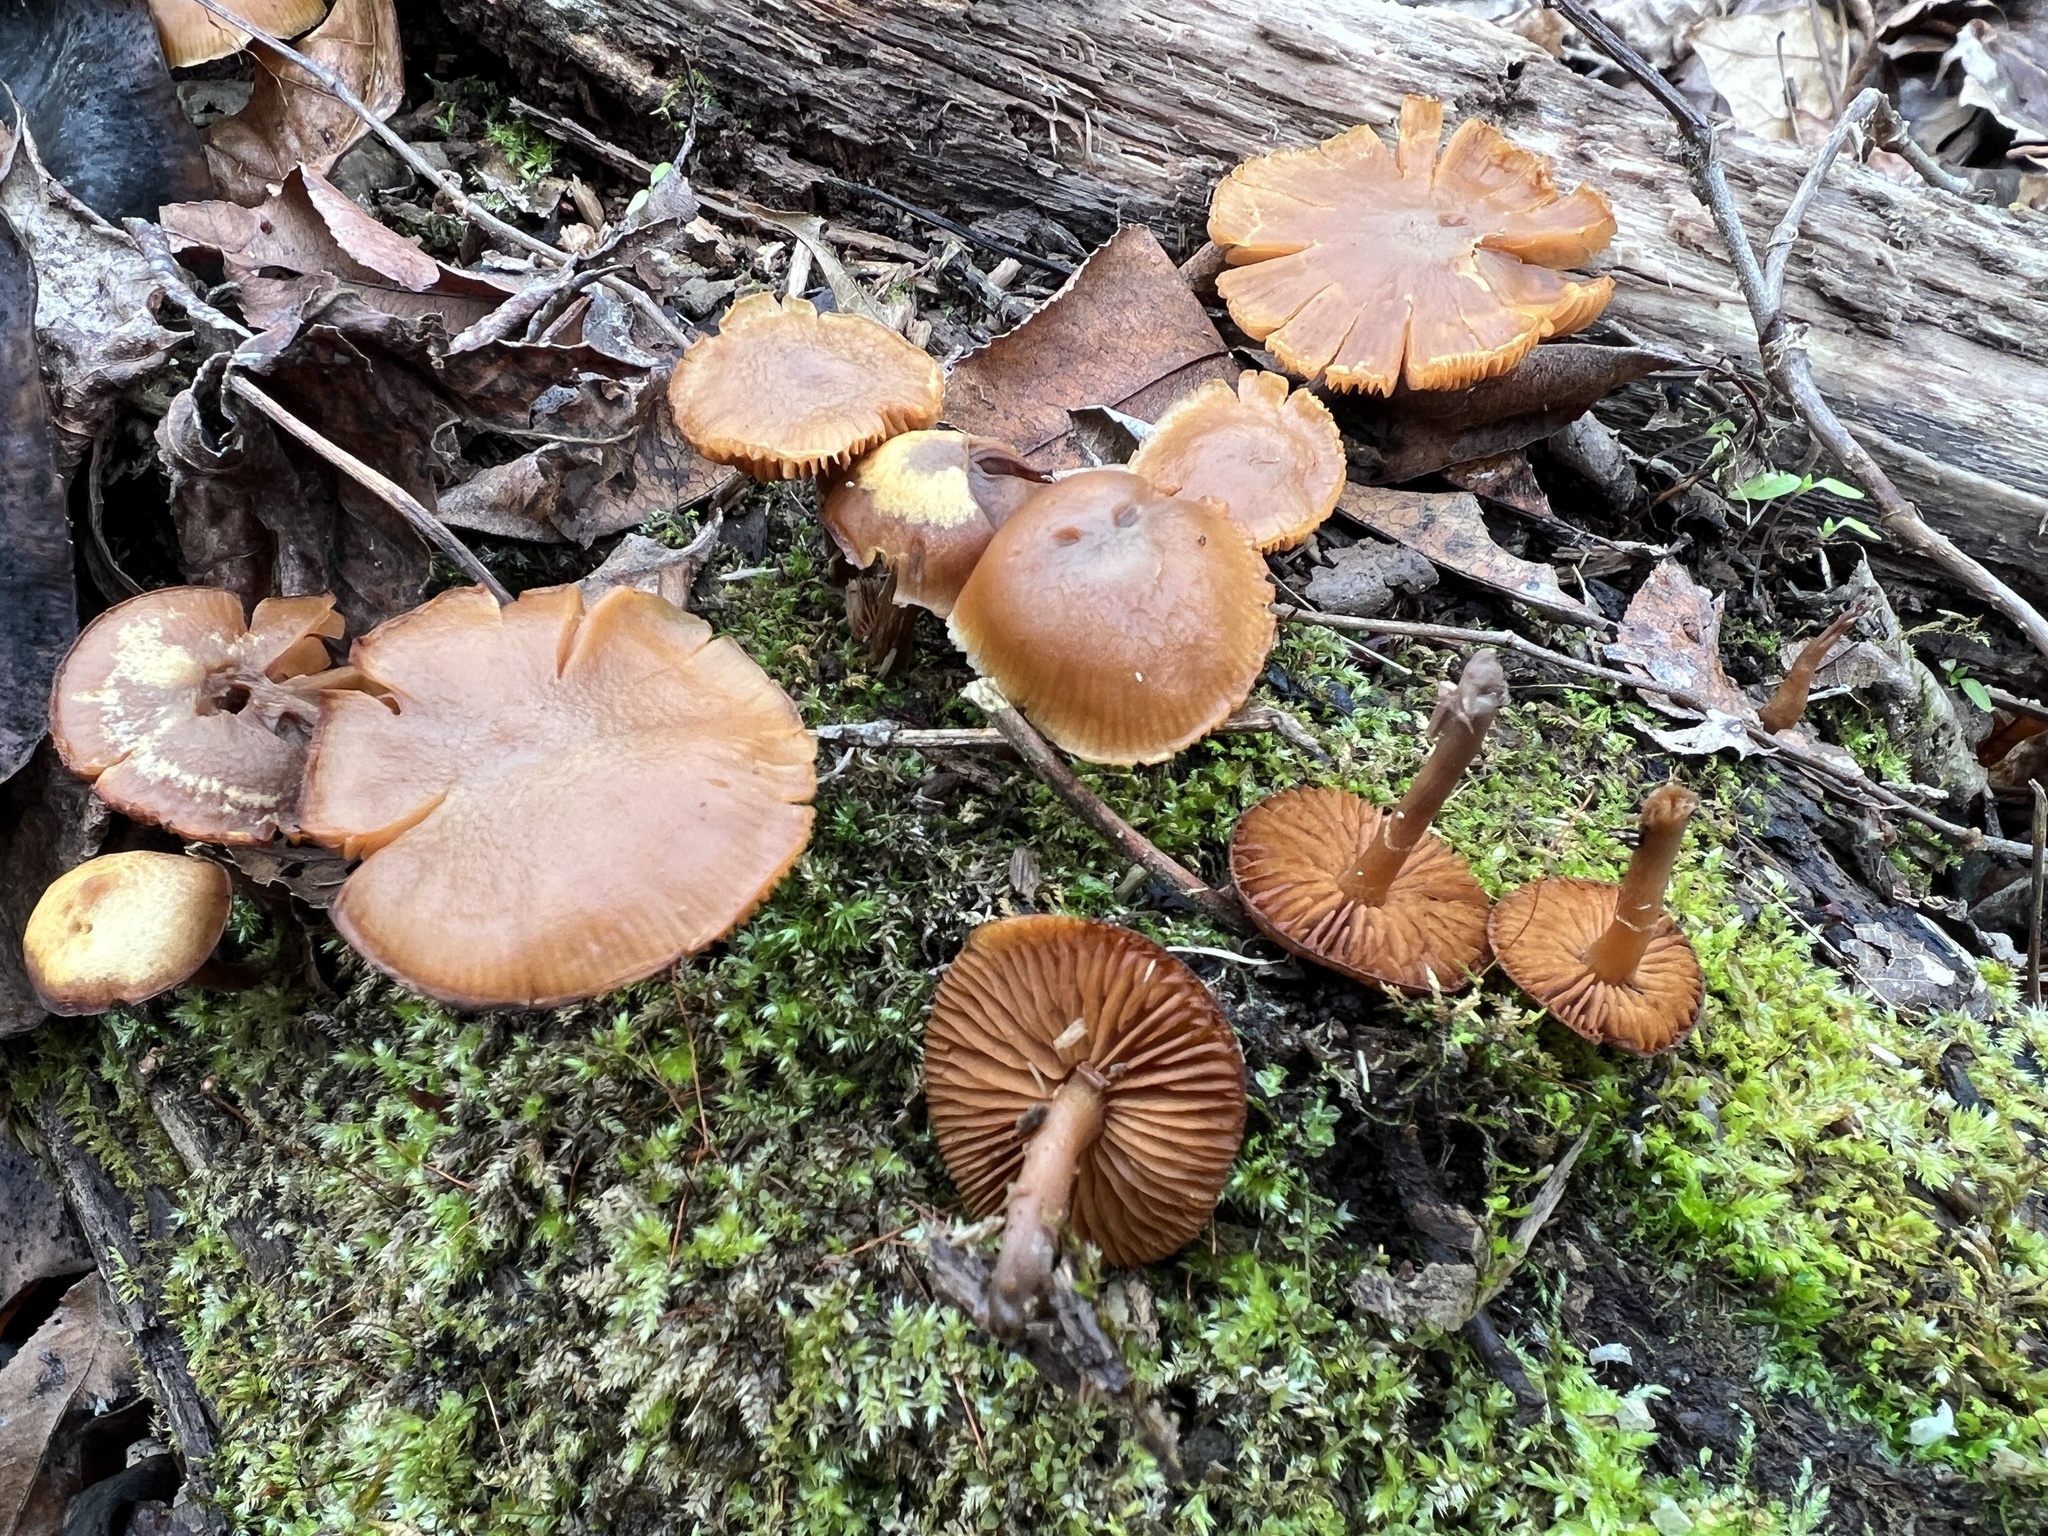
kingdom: Fungi
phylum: Basidiomycota
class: Agaricomycetes
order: Agaricales
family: Hymenogastraceae
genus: Galerina
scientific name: Galerina marginata
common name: Funeral bell
